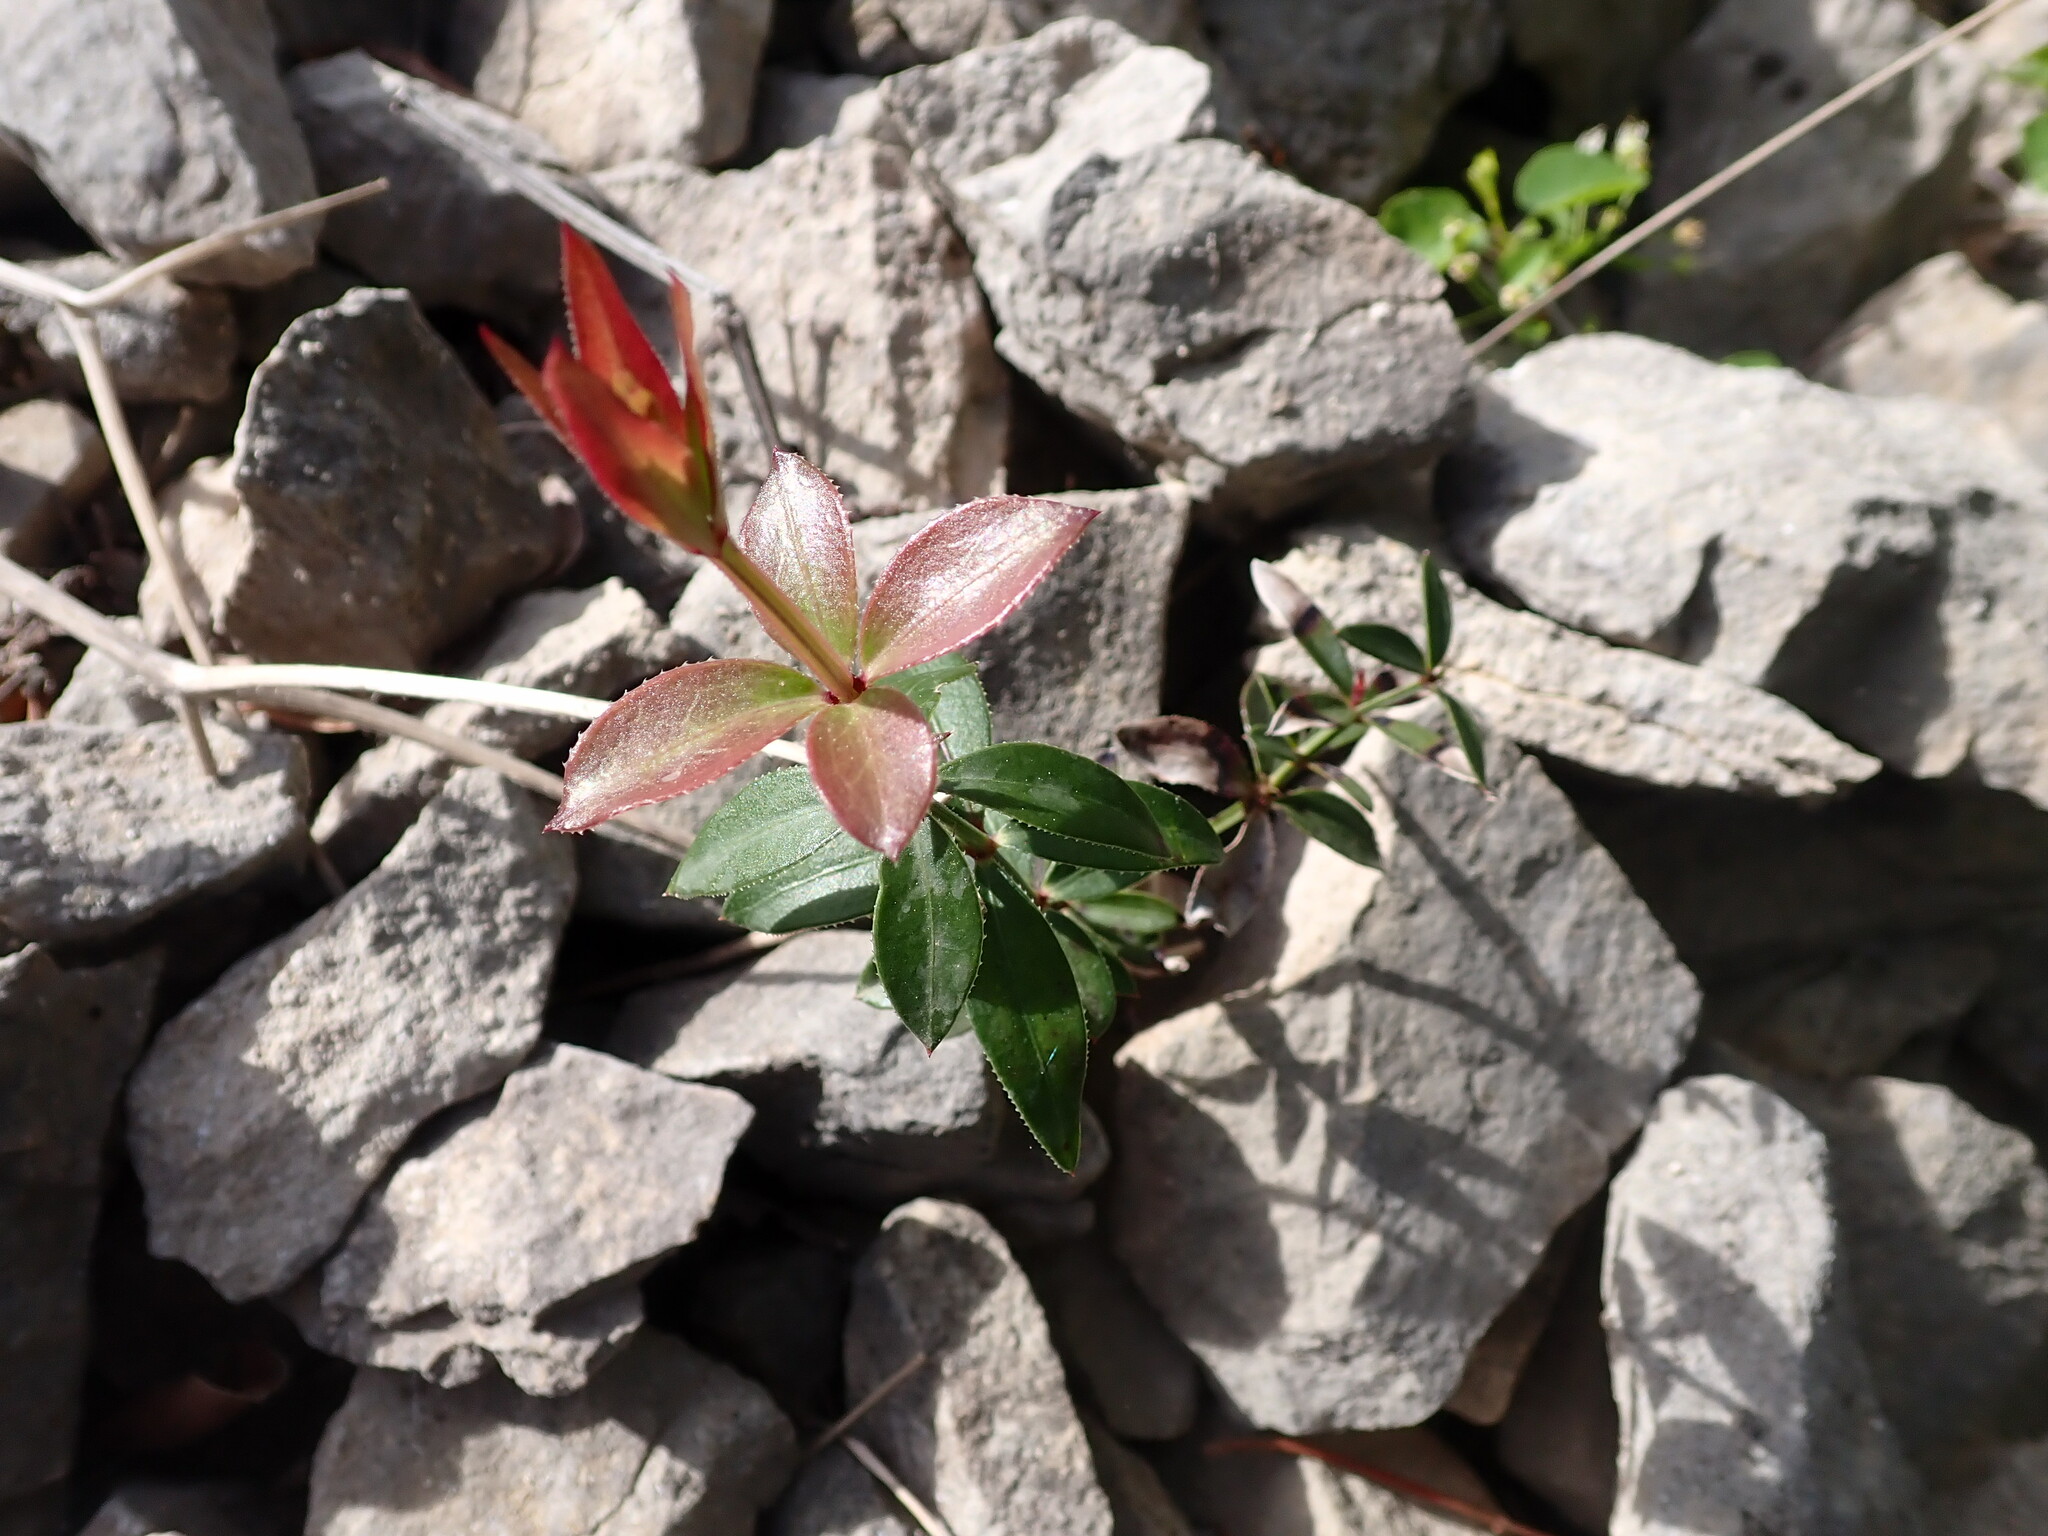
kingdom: Plantae
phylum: Tracheophyta
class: Magnoliopsida
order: Gentianales
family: Rubiaceae
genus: Rubia
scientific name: Rubia peregrina
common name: Wild madder
